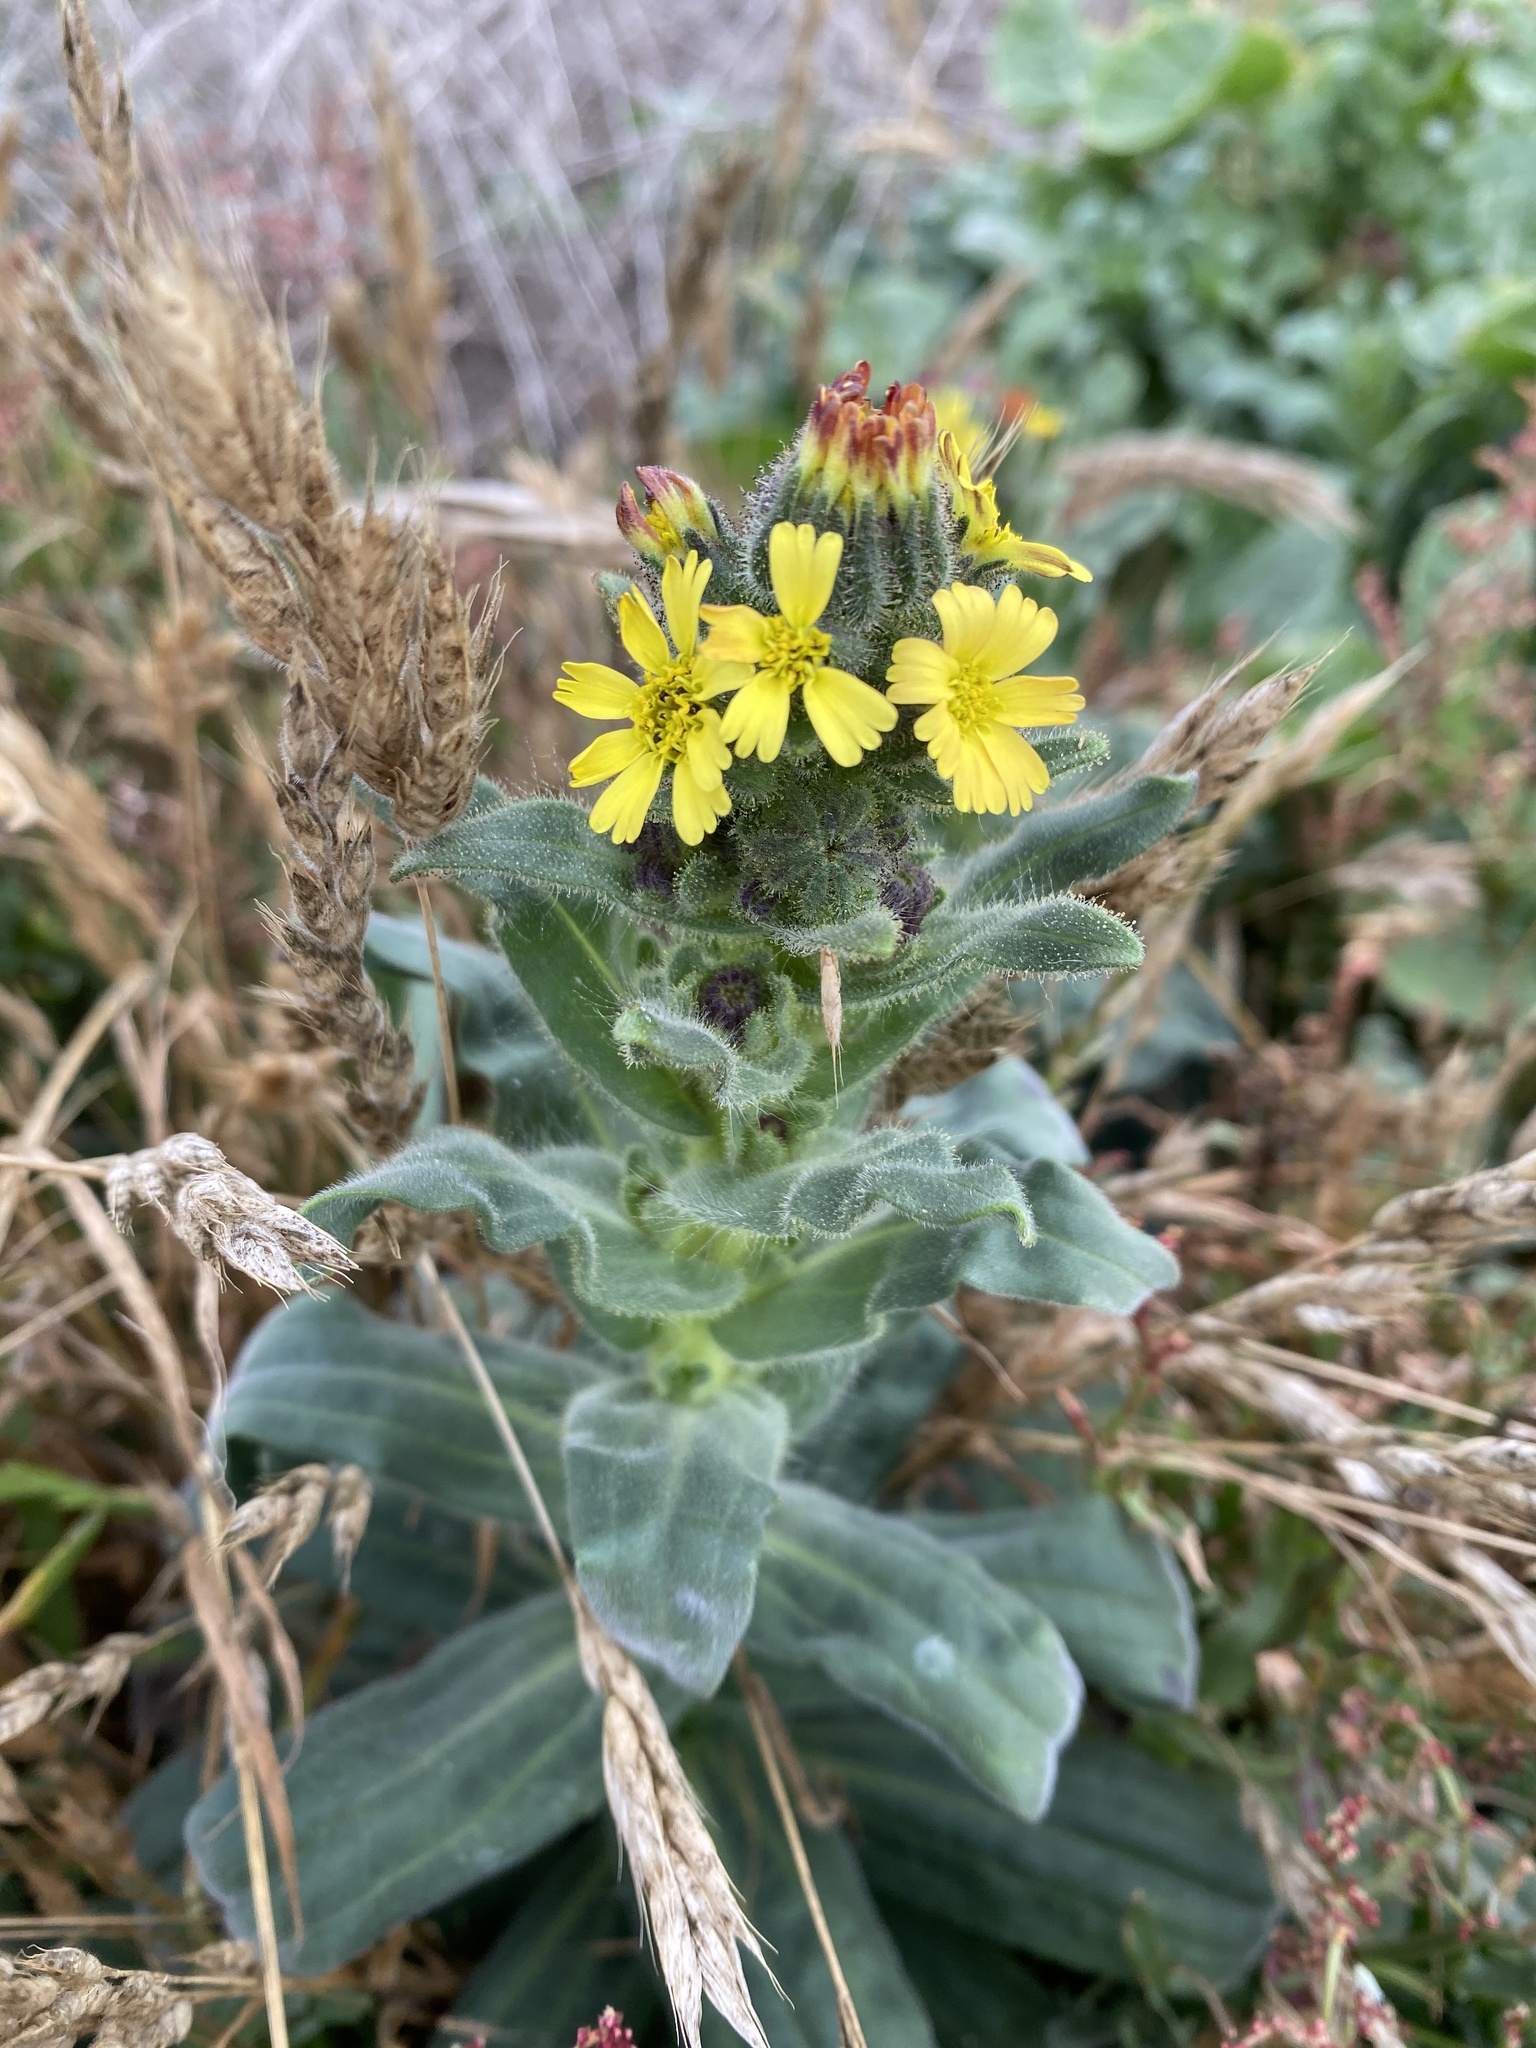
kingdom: Plantae
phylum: Tracheophyta
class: Magnoliopsida
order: Asterales
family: Asteraceae
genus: Madia
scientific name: Madia sativa
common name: Coast tarweed
